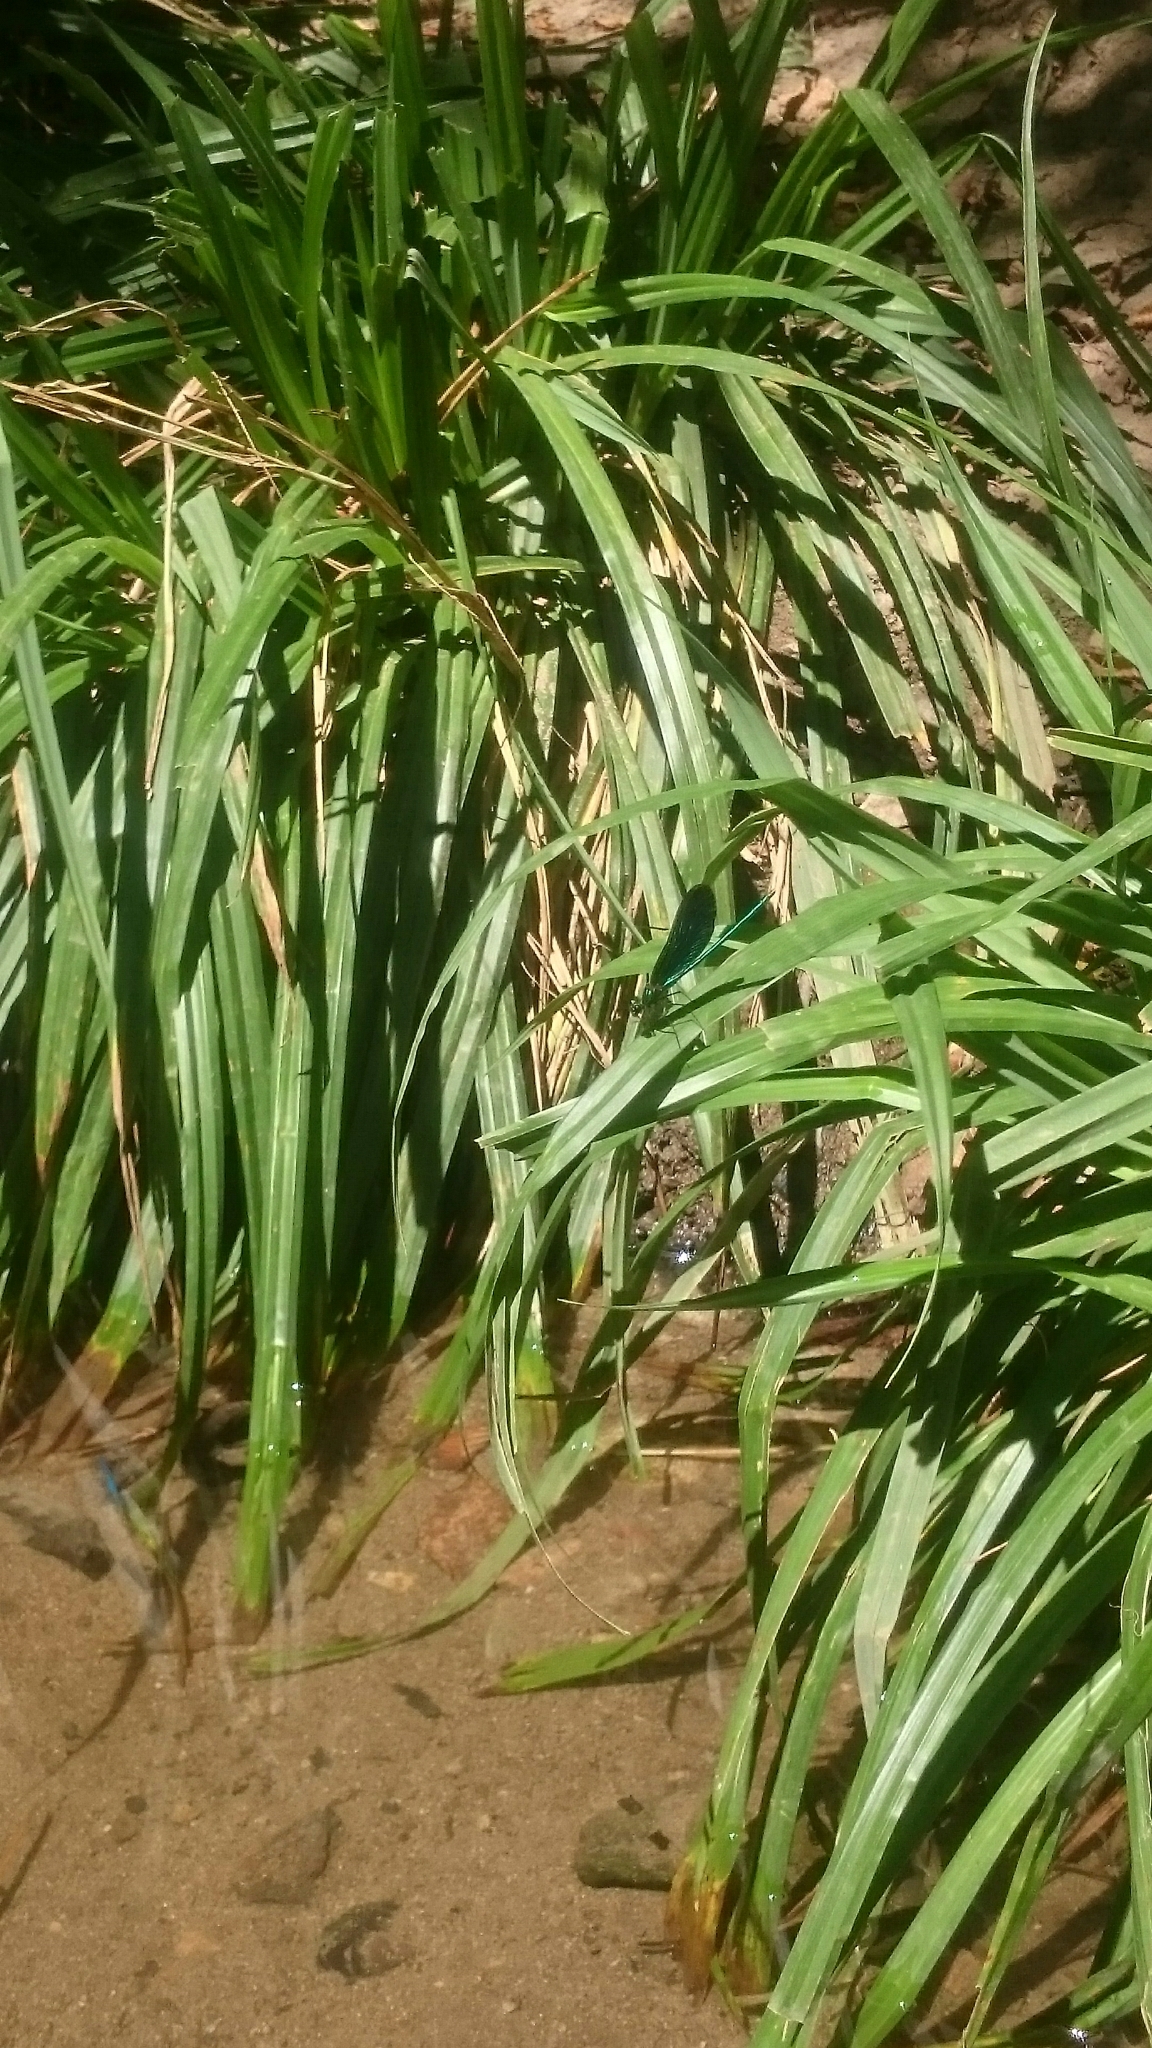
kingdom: Animalia
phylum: Arthropoda
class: Insecta
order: Odonata
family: Calopterygidae
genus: Calopteryx
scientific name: Calopteryx virgo
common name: Beautiful demoiselle
